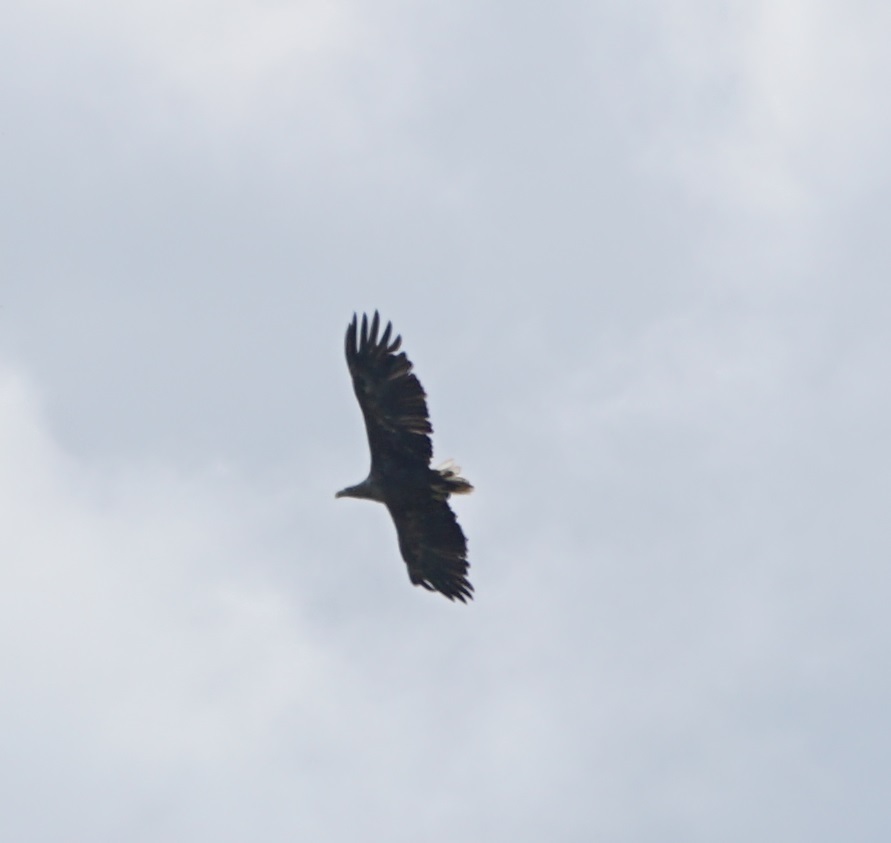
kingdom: Animalia
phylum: Chordata
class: Aves
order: Accipitriformes
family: Accipitridae
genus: Haliaeetus
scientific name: Haliaeetus albicilla
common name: White-tailed eagle
